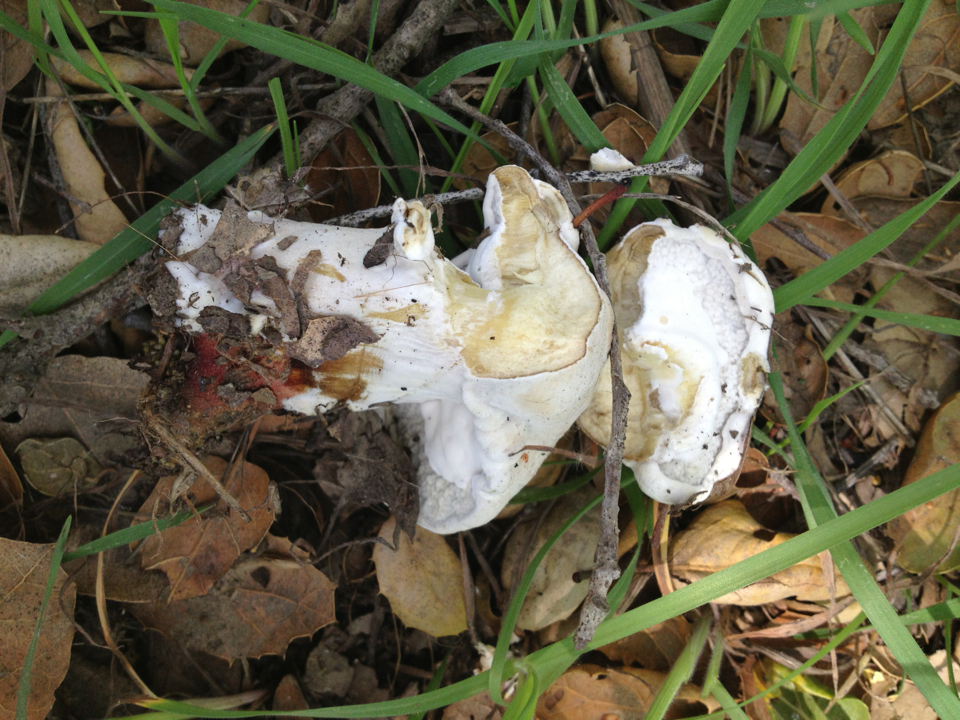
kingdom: Fungi
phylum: Ascomycota
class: Sordariomycetes
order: Hypocreales
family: Hypocreaceae
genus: Hypomyces
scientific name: Hypomyces chrysospermus
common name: Bolete mould
